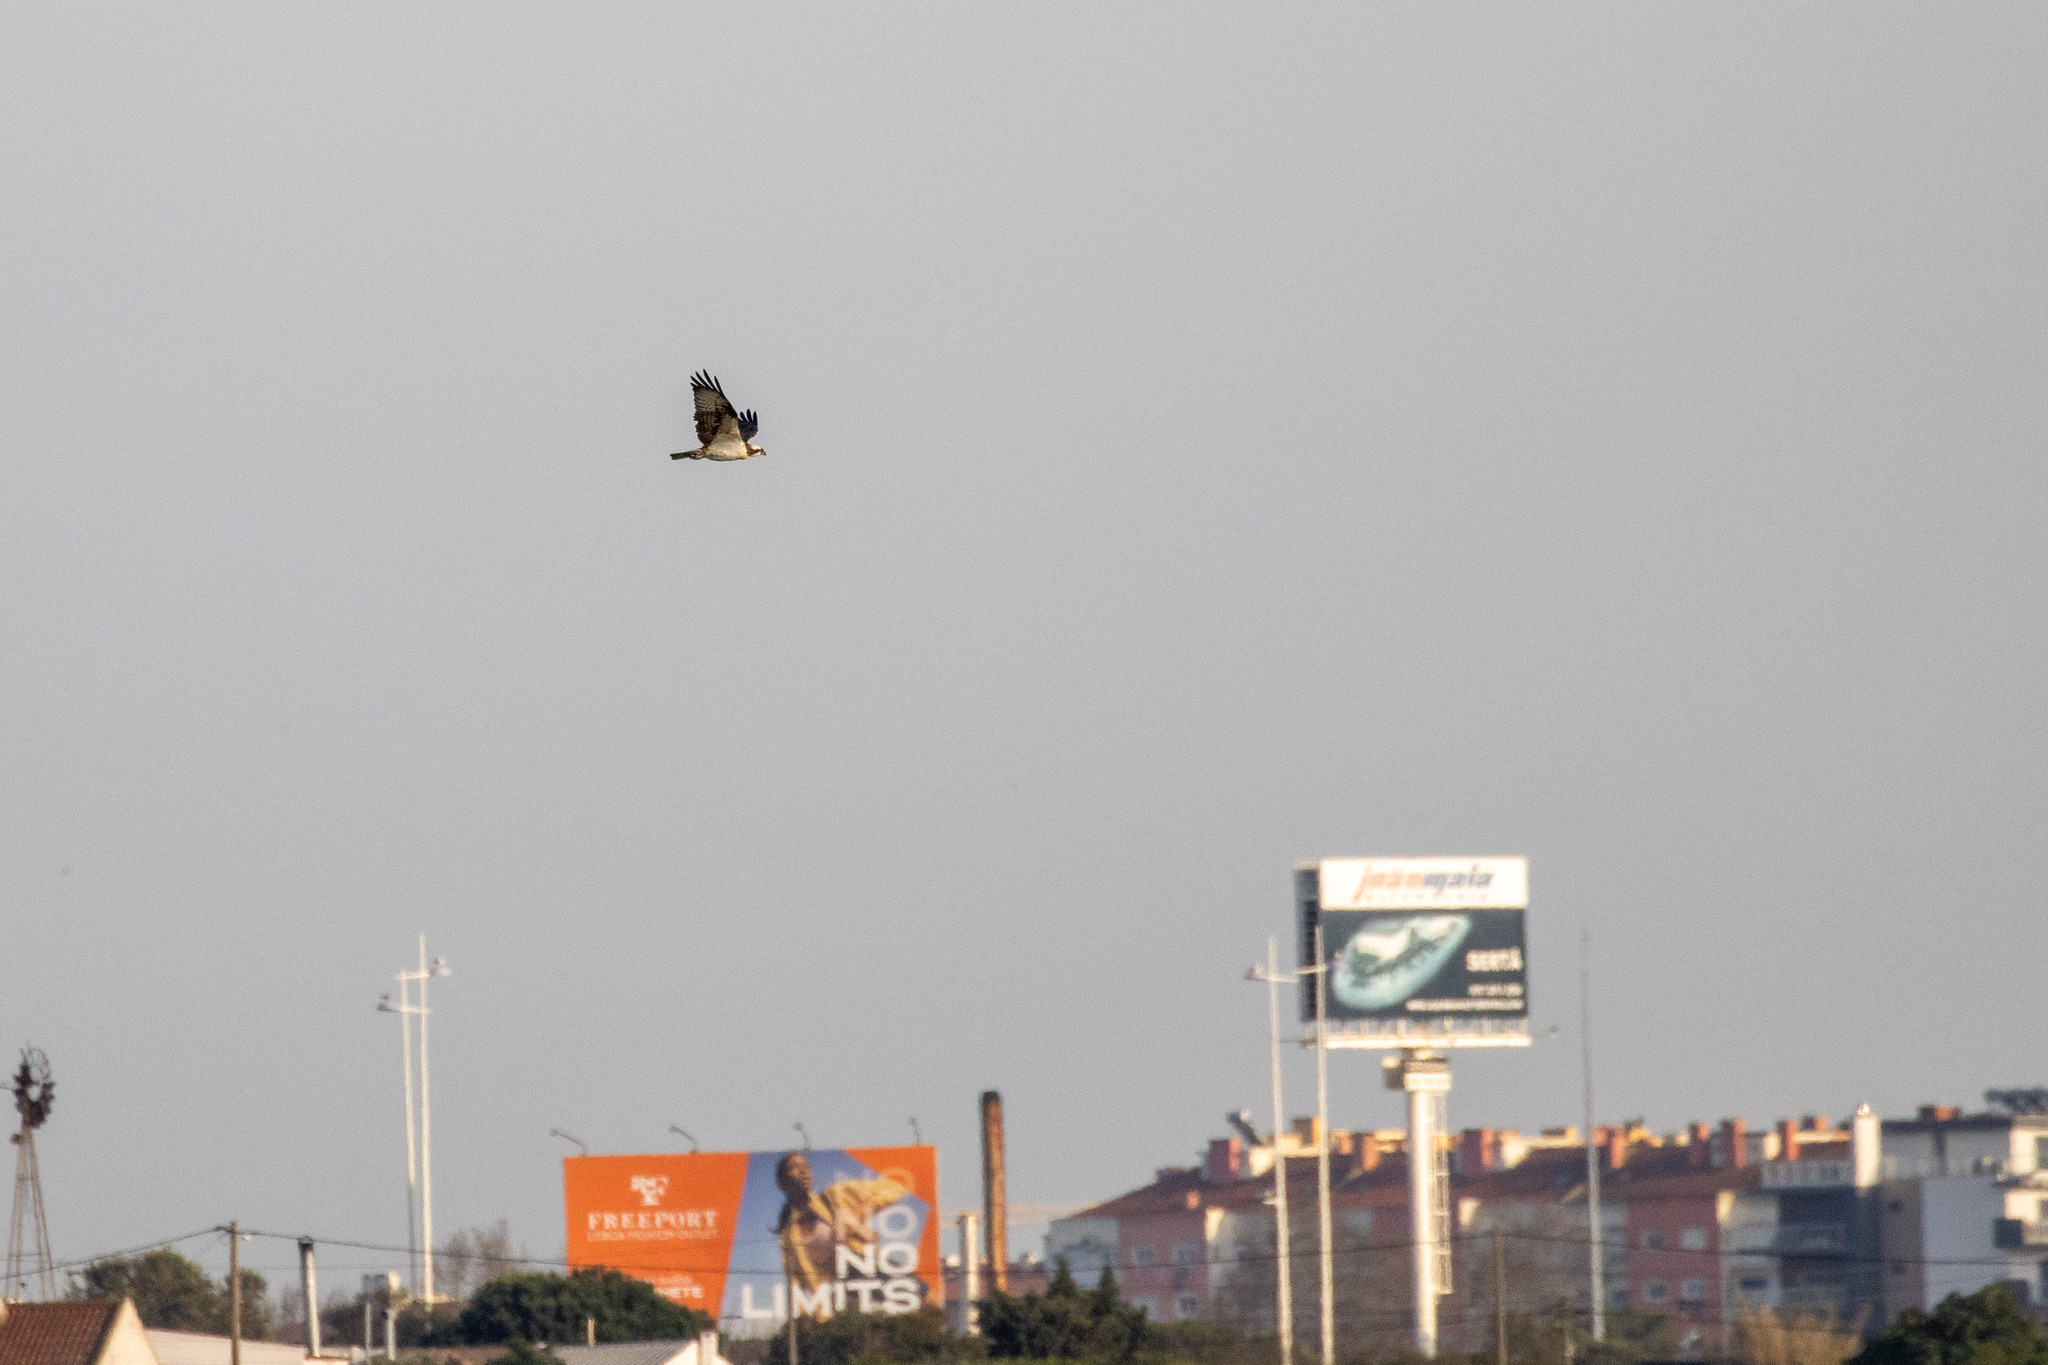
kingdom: Animalia
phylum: Chordata
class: Aves
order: Accipitriformes
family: Pandionidae
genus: Pandion
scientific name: Pandion haliaetus
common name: Osprey
